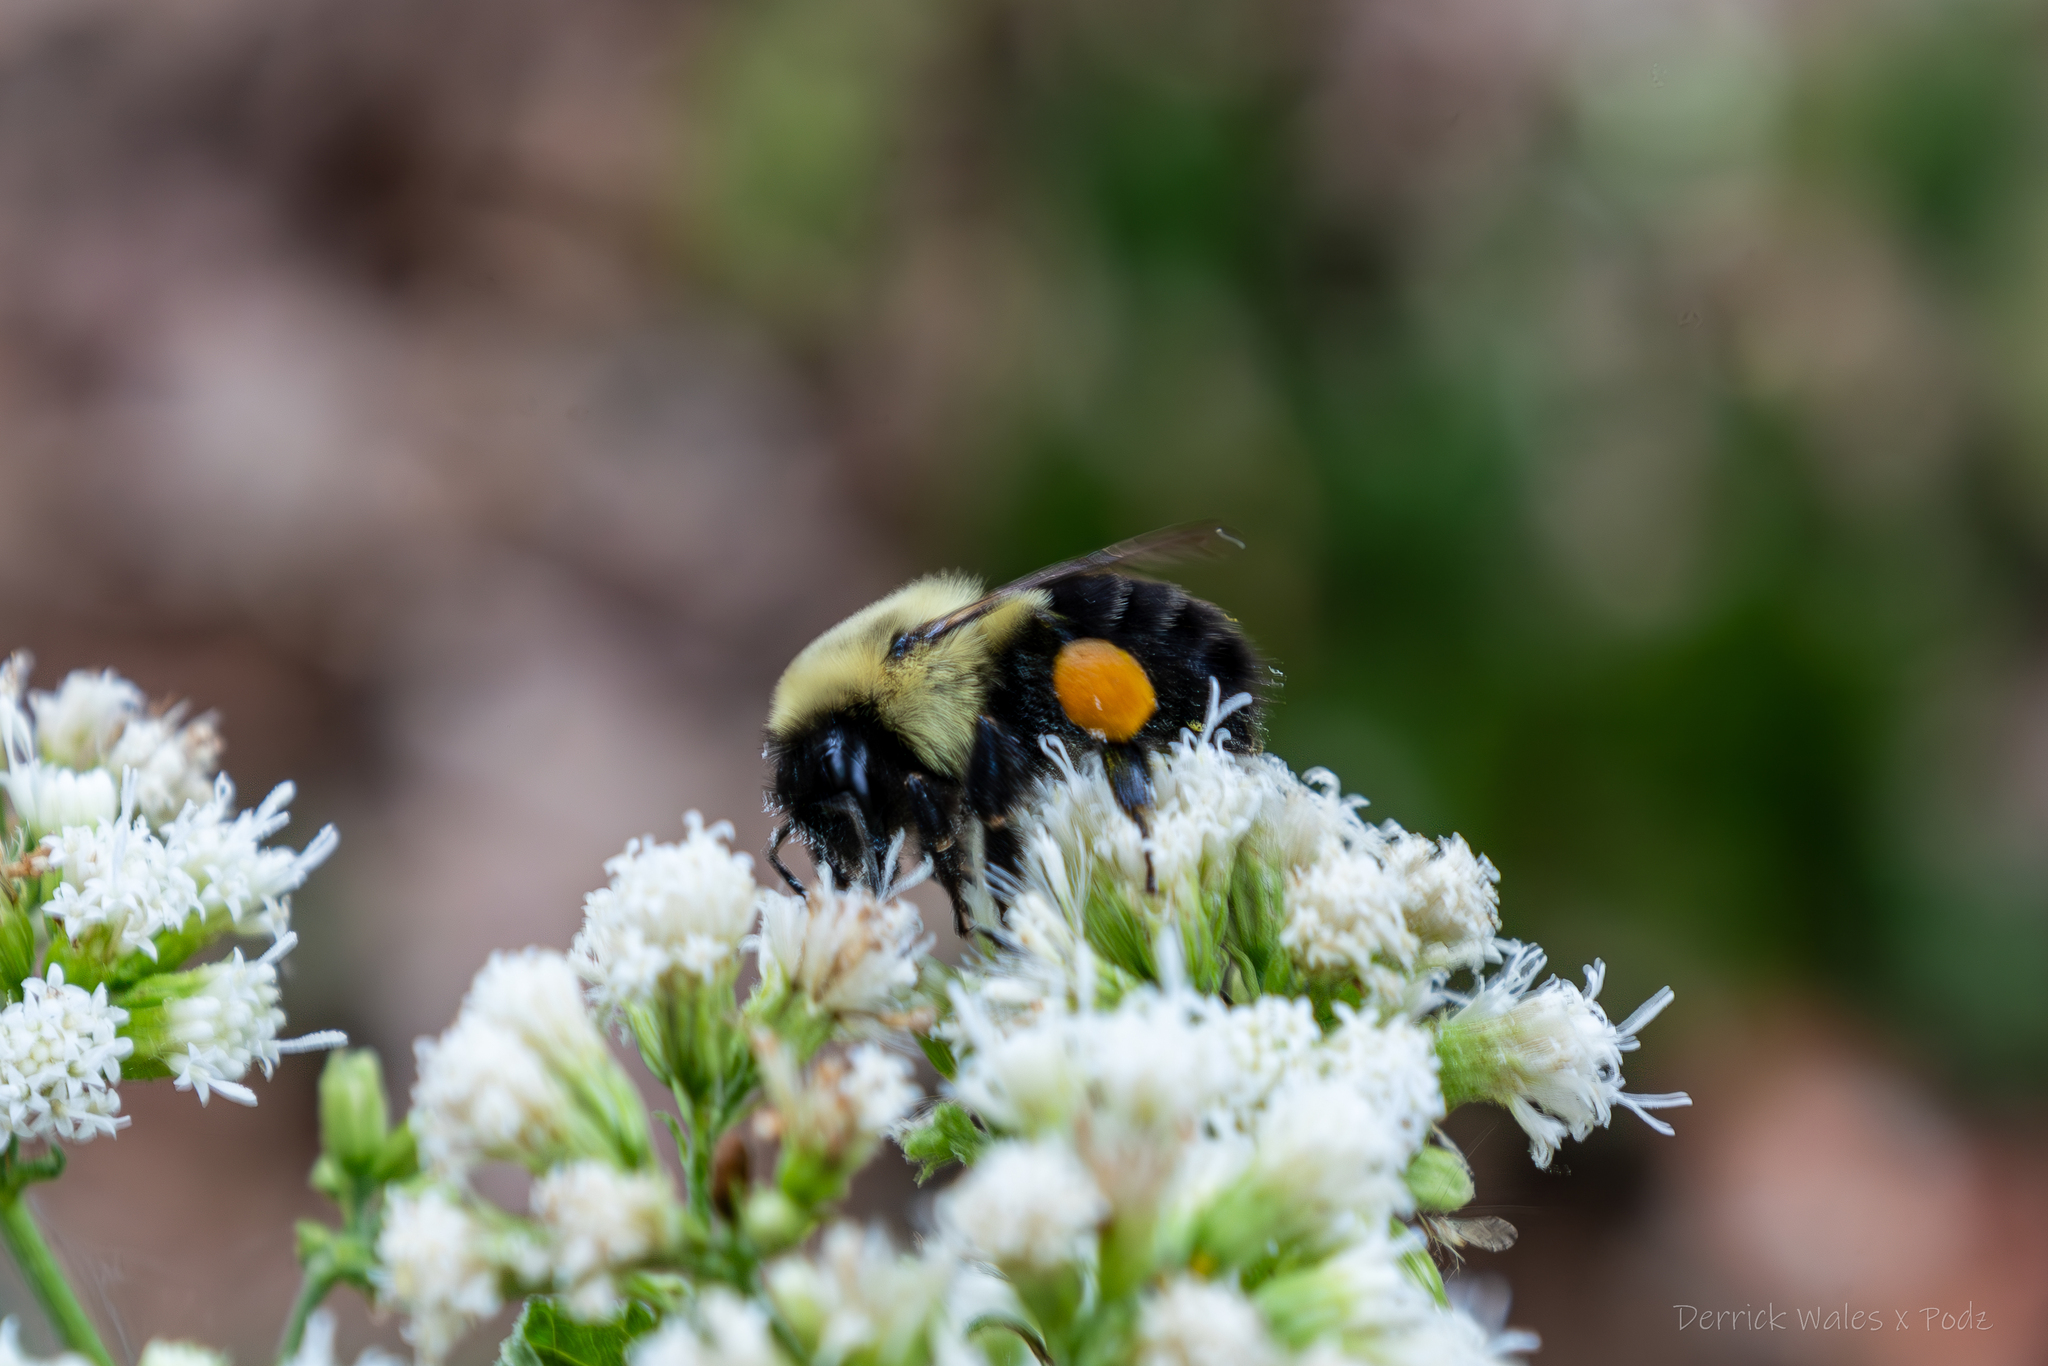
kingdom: Animalia
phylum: Arthropoda
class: Insecta
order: Hymenoptera
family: Apidae
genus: Bombus
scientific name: Bombus impatiens
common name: Common eastern bumble bee
